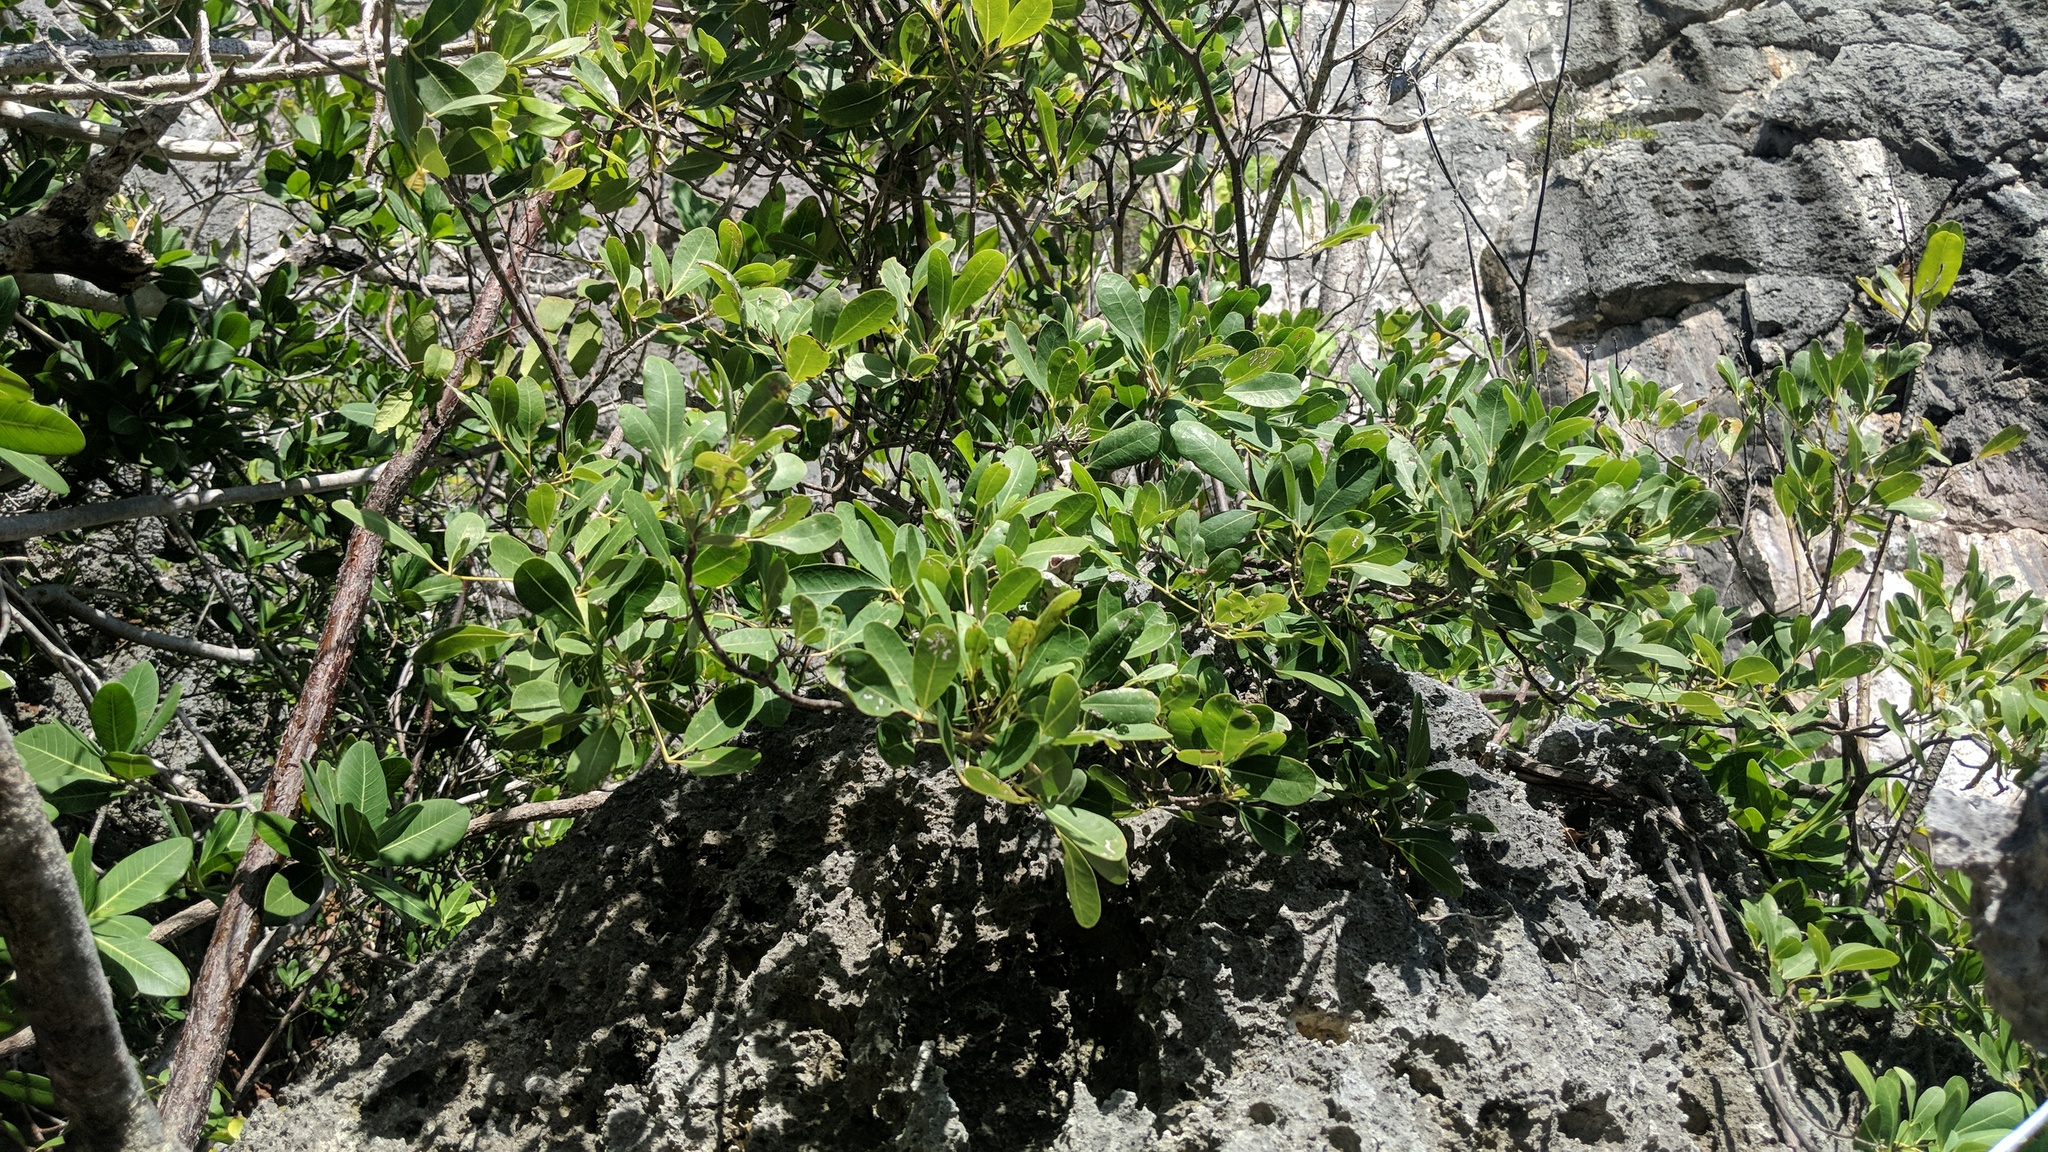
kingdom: Plantae
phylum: Tracheophyta
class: Magnoliopsida
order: Lamiales
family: Bignoniaceae
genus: Tabebuia
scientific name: Tabebuia heterophylla
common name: White cedar
